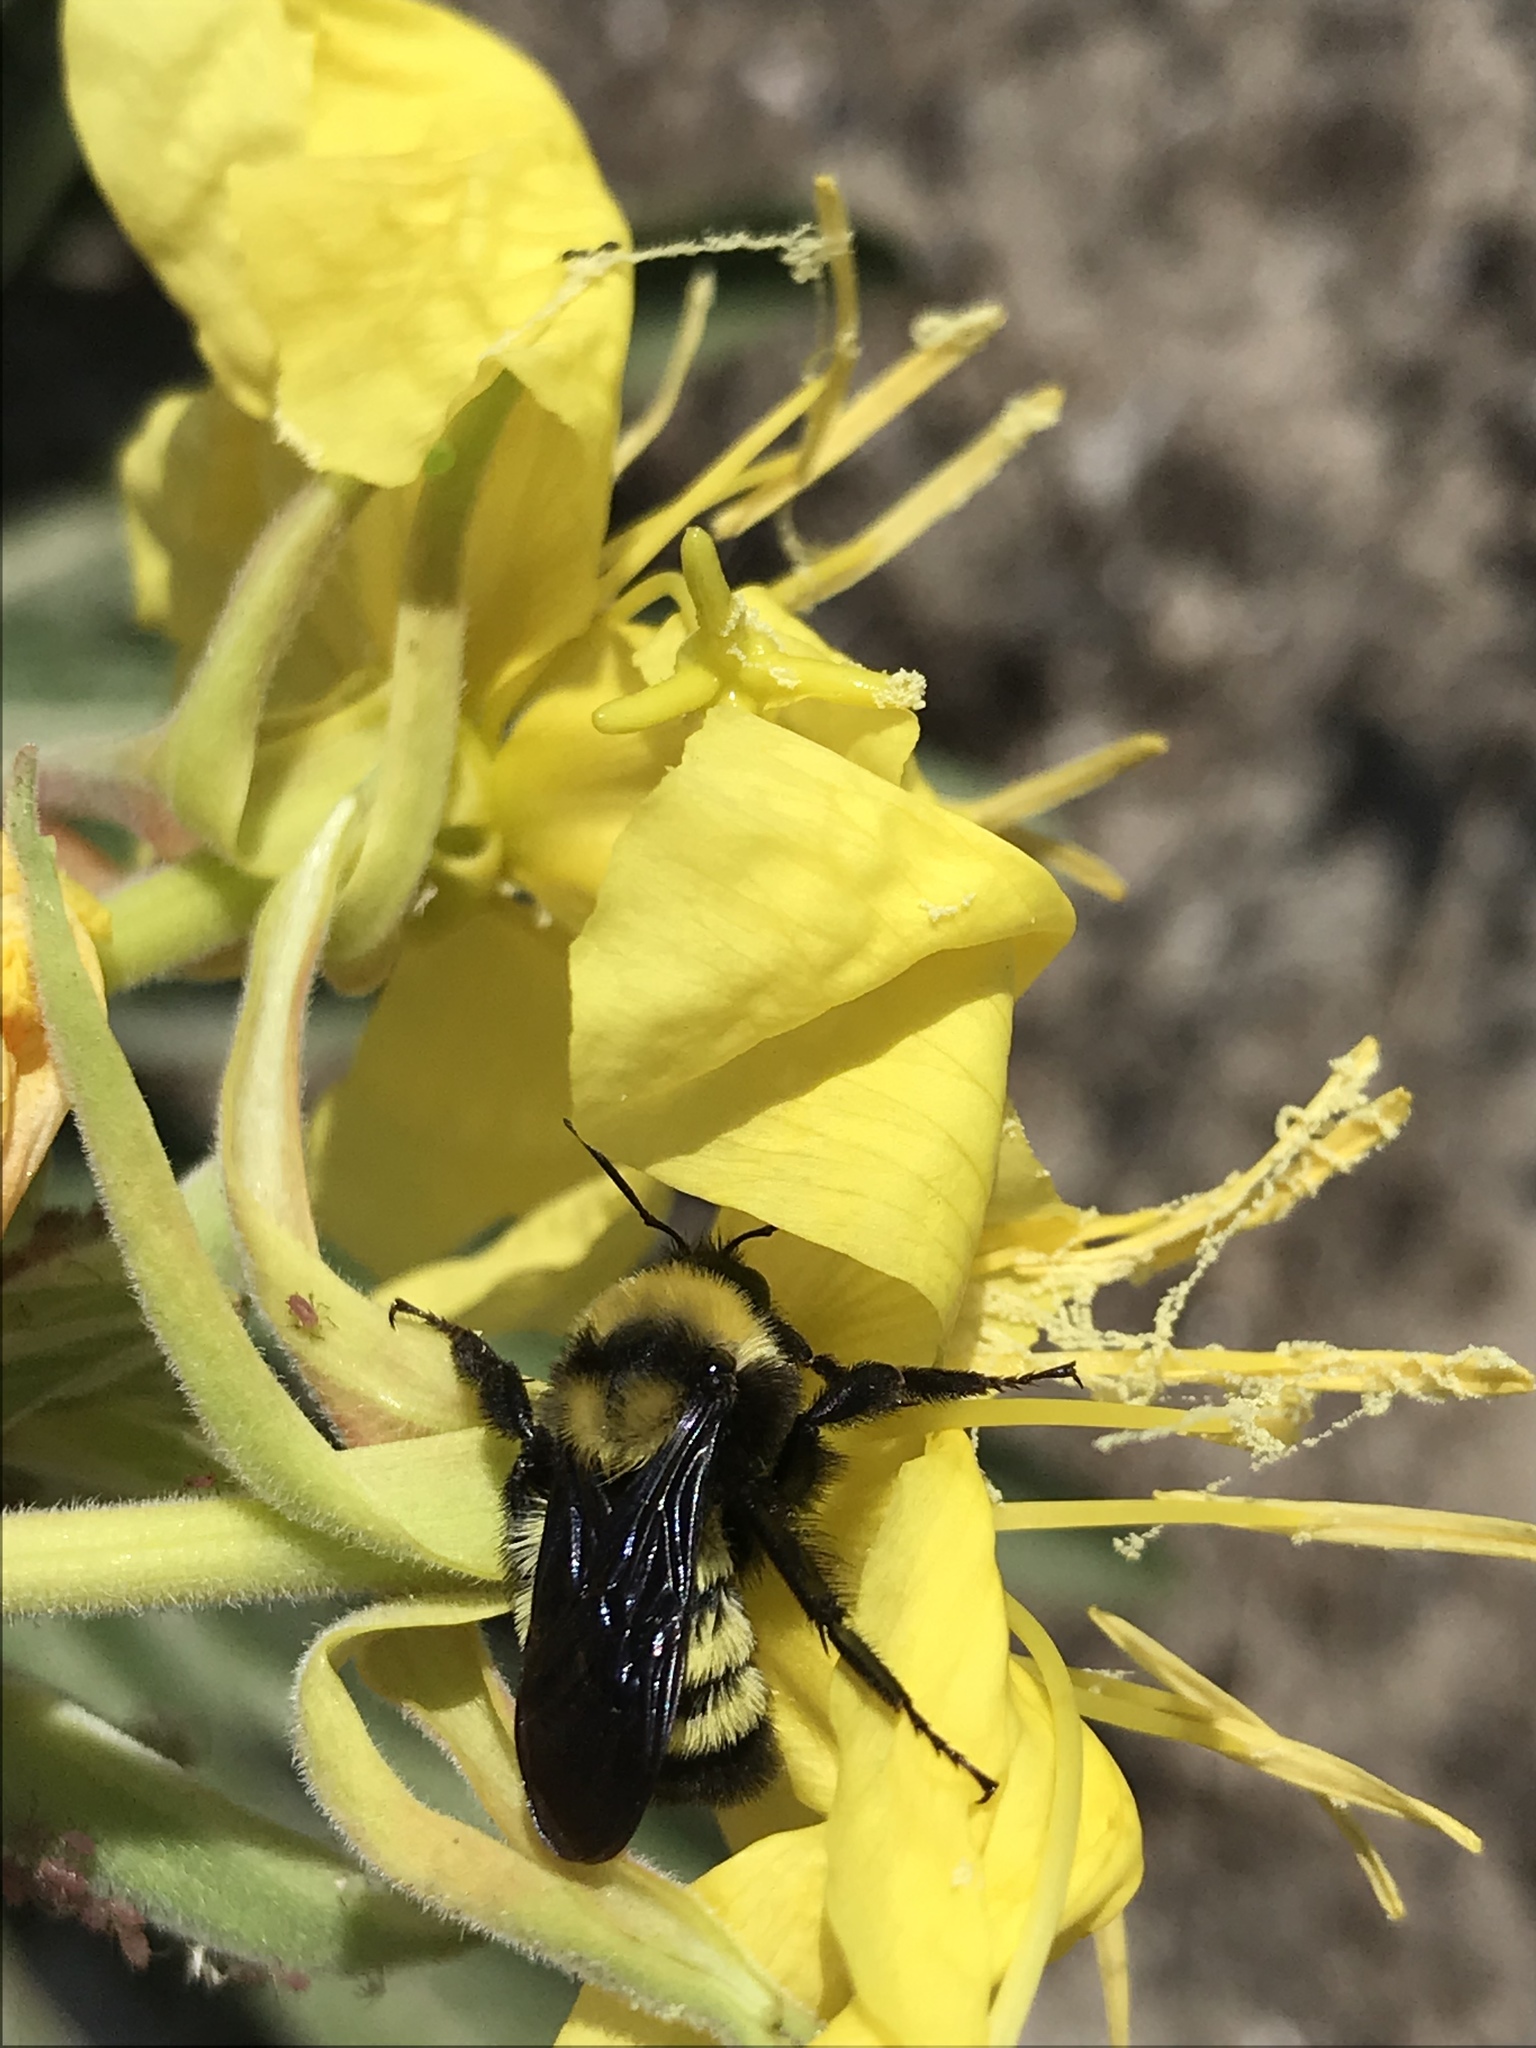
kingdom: Animalia
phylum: Arthropoda
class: Insecta
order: Hymenoptera
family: Apidae
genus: Bombus
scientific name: Bombus sonorus
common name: Sonoran bumble bee
